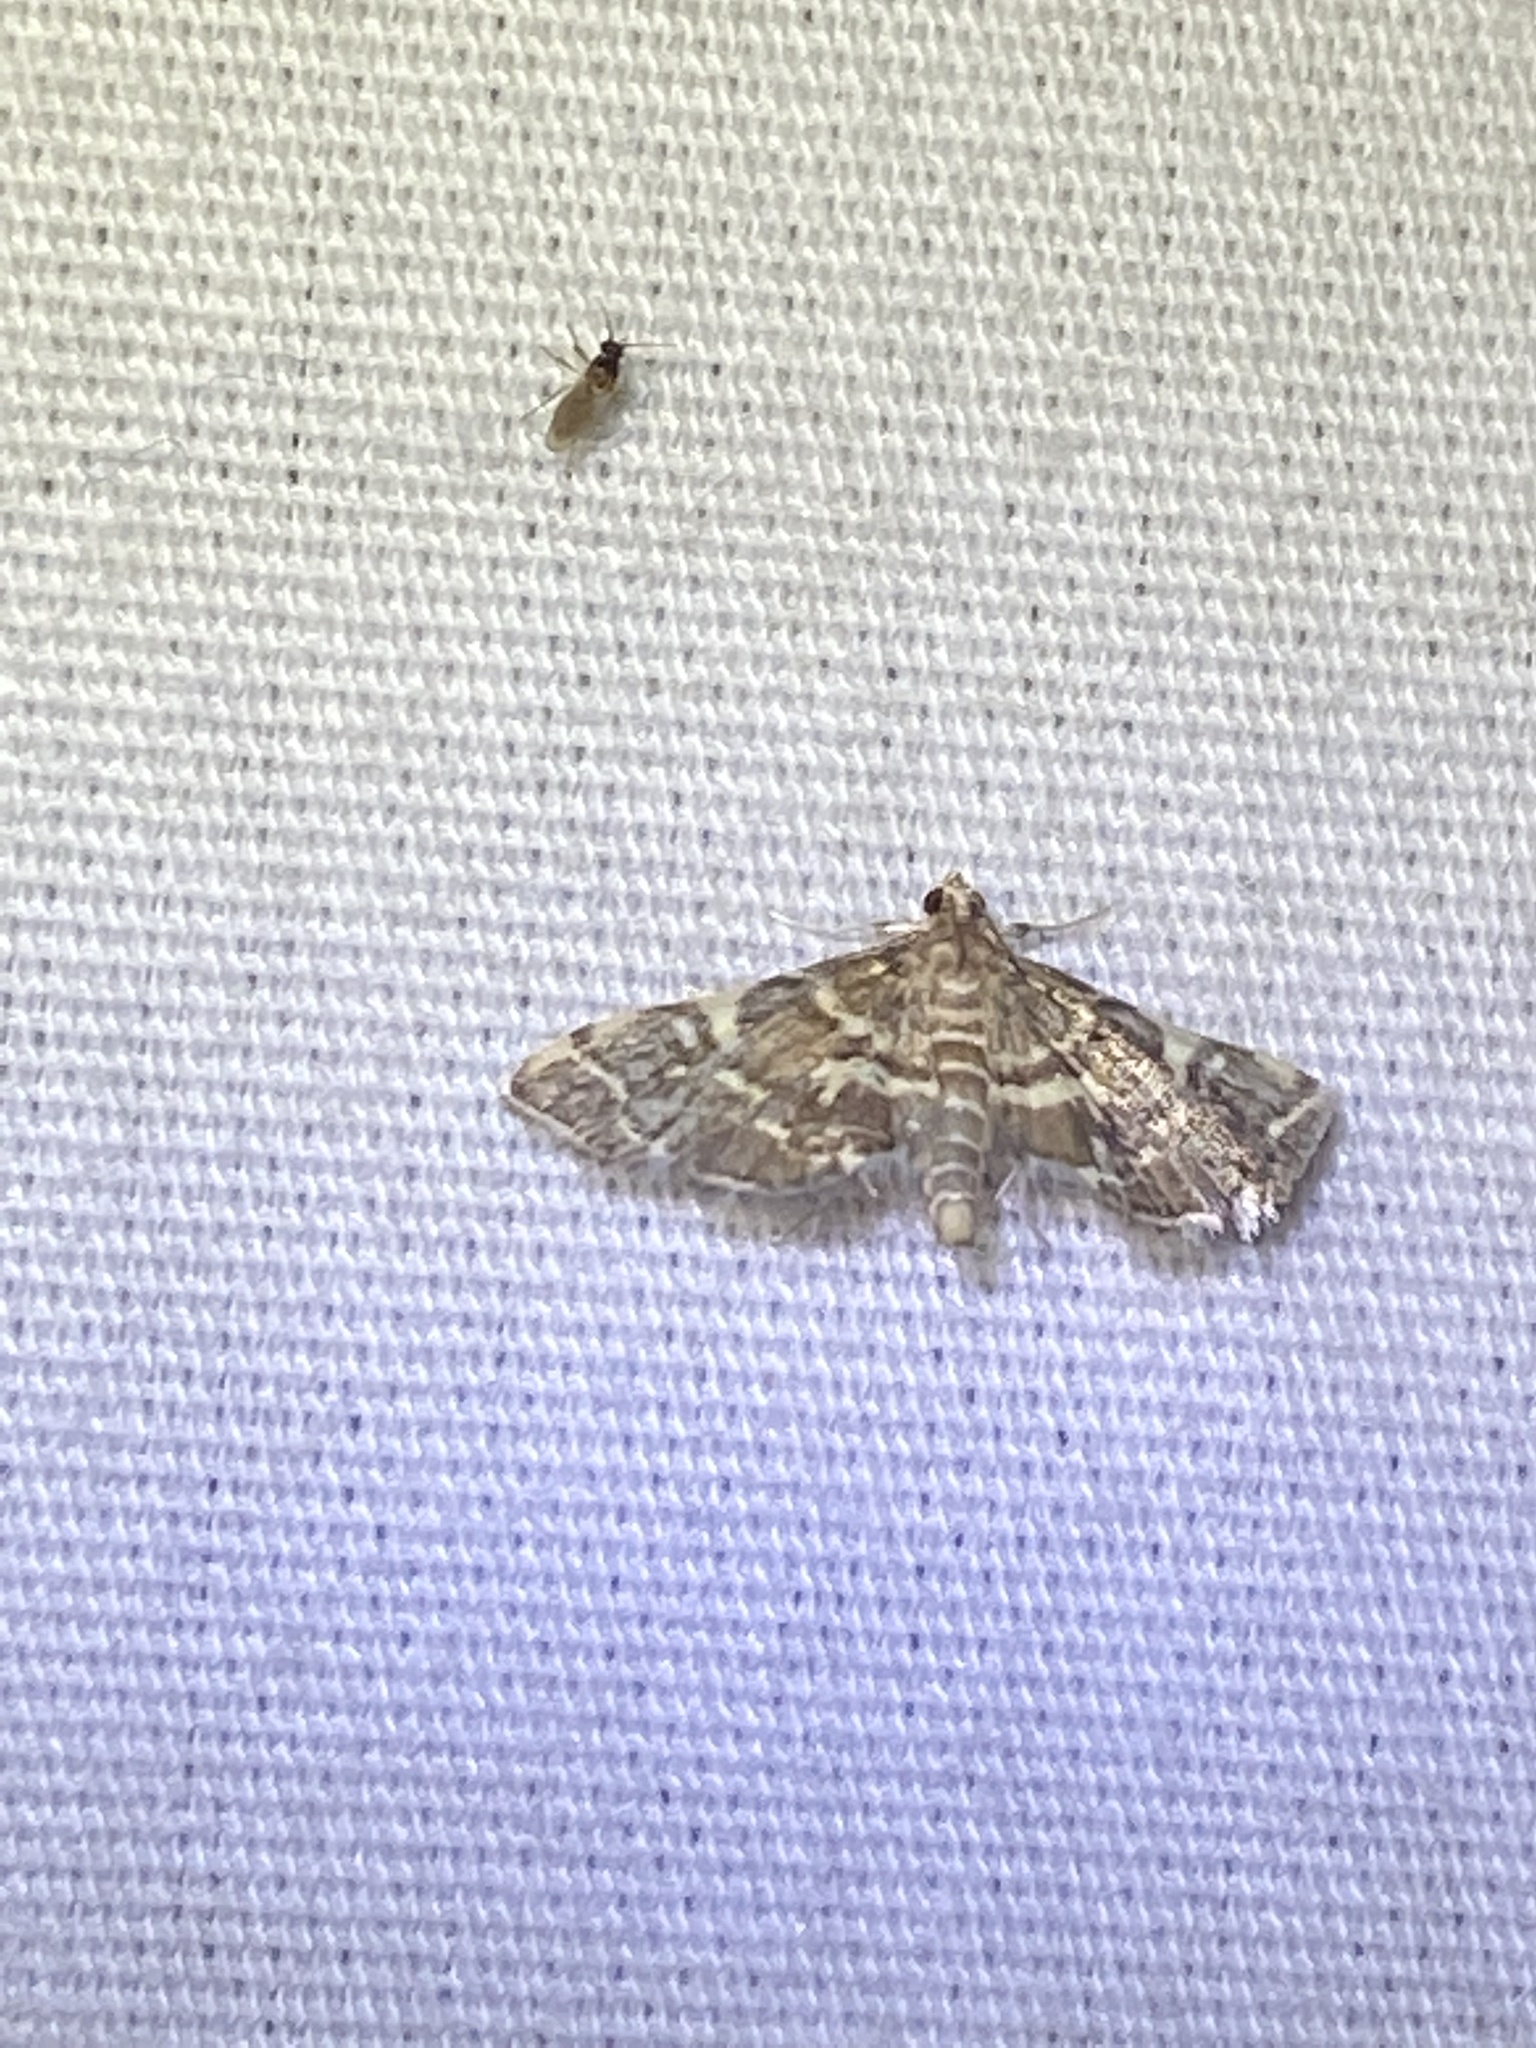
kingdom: Animalia
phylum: Arthropoda
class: Insecta
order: Lepidoptera
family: Crambidae
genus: Anageshna
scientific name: Anageshna primordialis
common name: Yellow-spotted webworm moth
